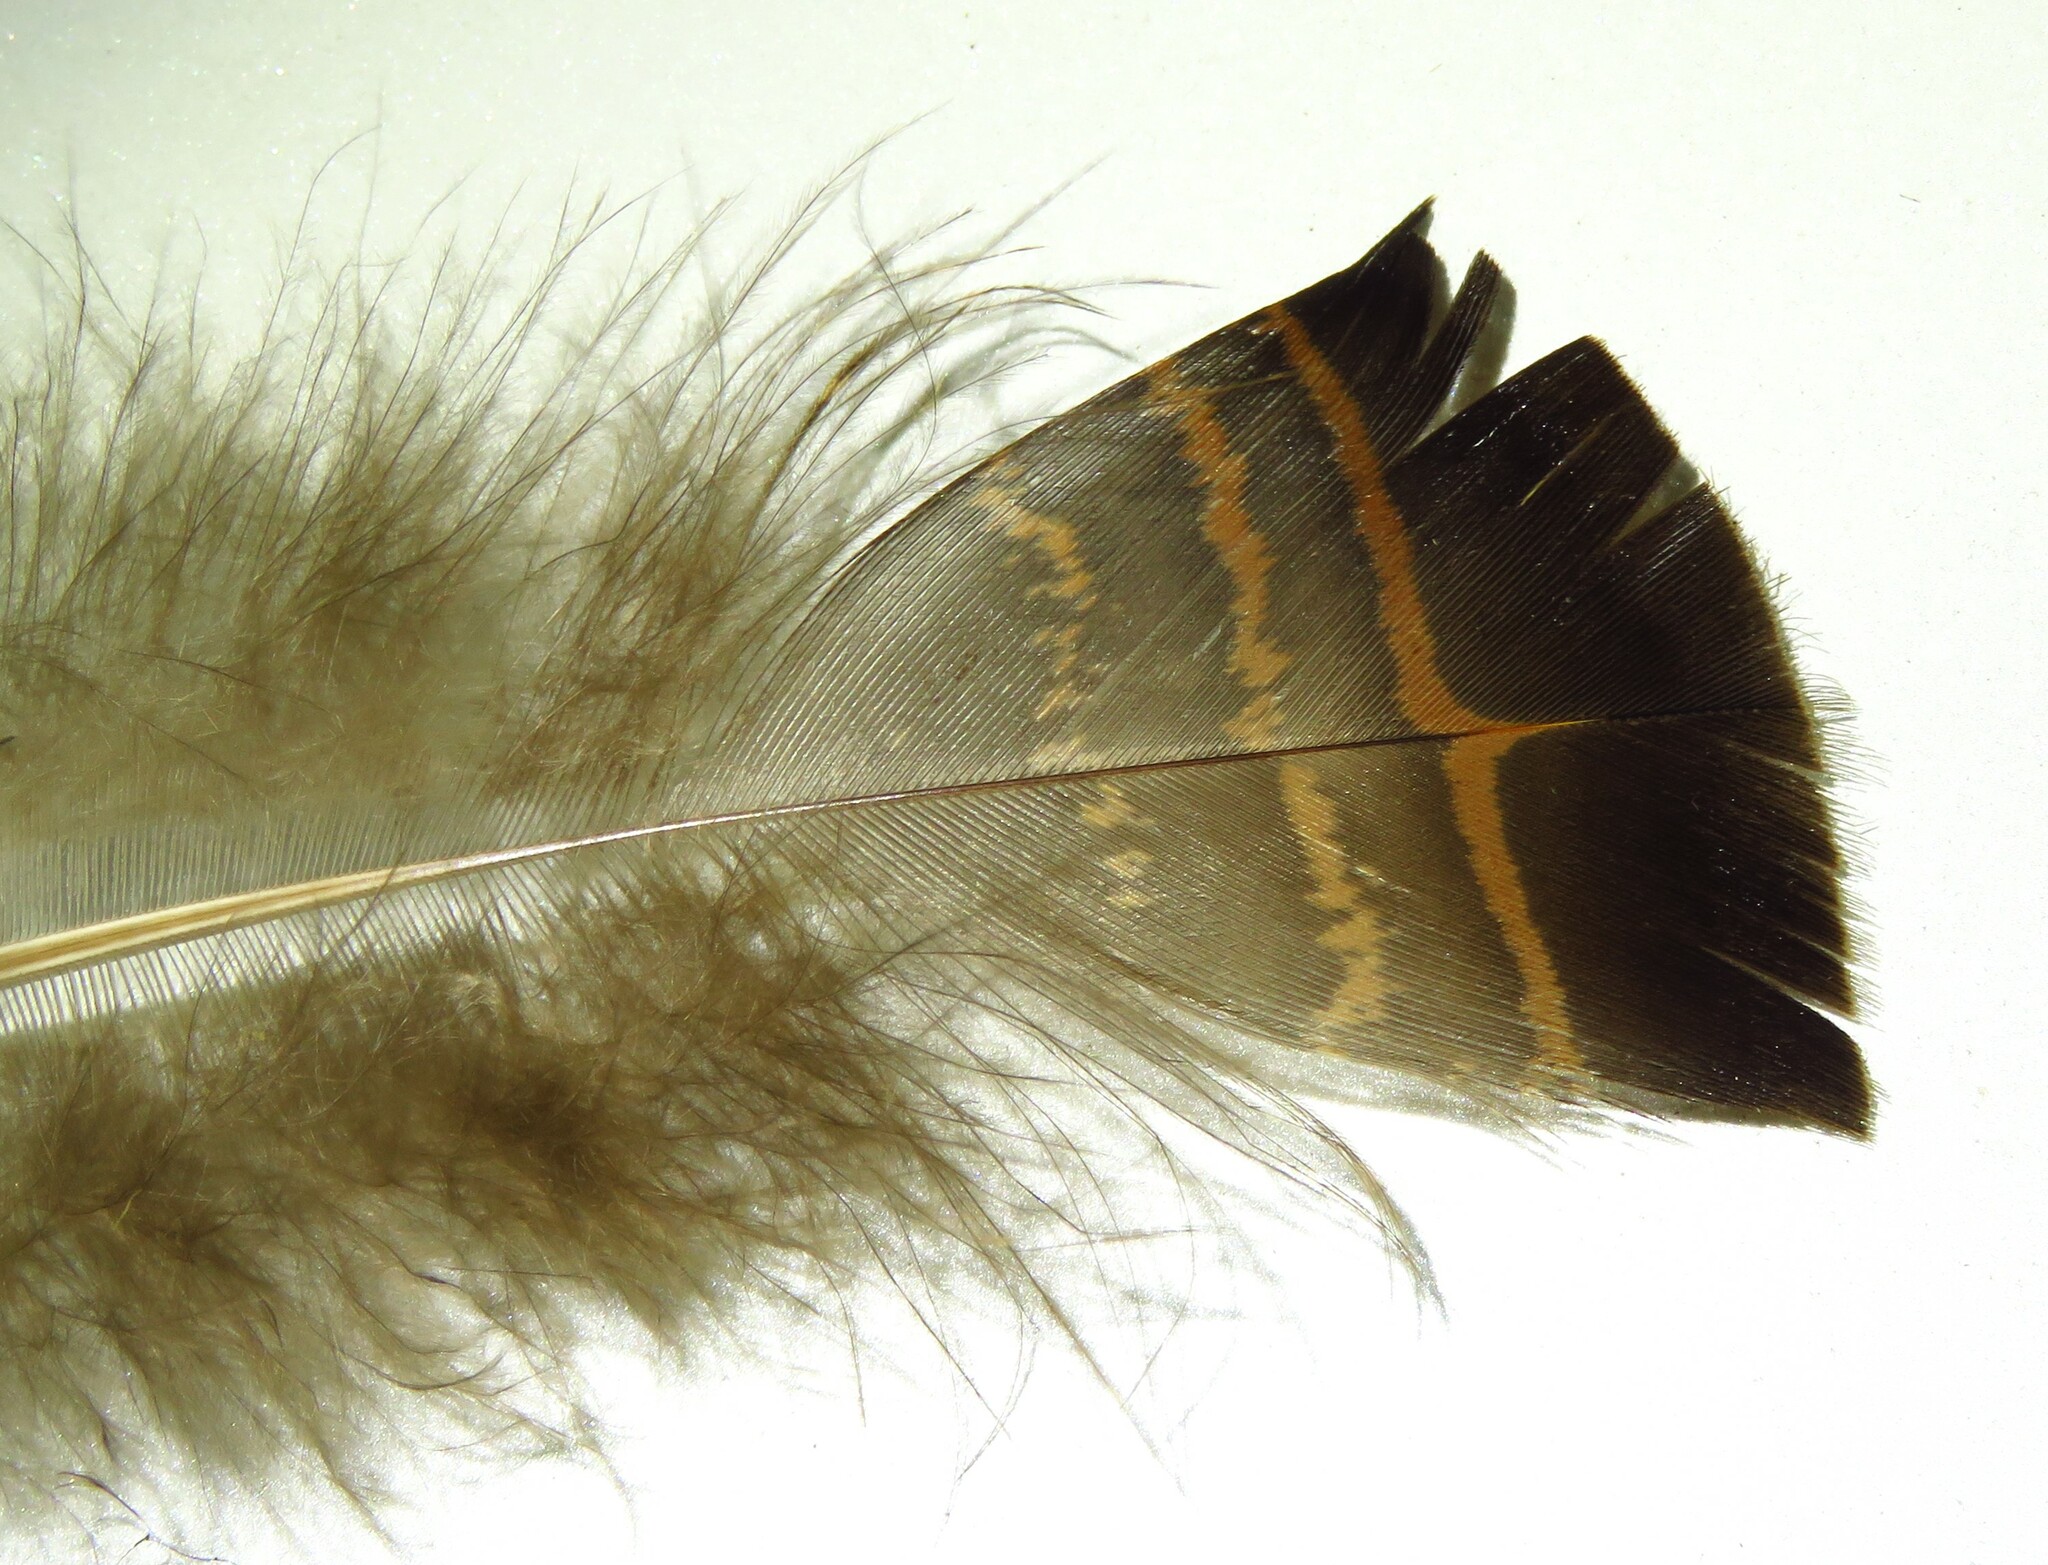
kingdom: Animalia
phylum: Chordata
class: Aves
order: Galliformes
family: Phasianidae
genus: Meleagris
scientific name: Meleagris gallopavo
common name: Wild turkey
